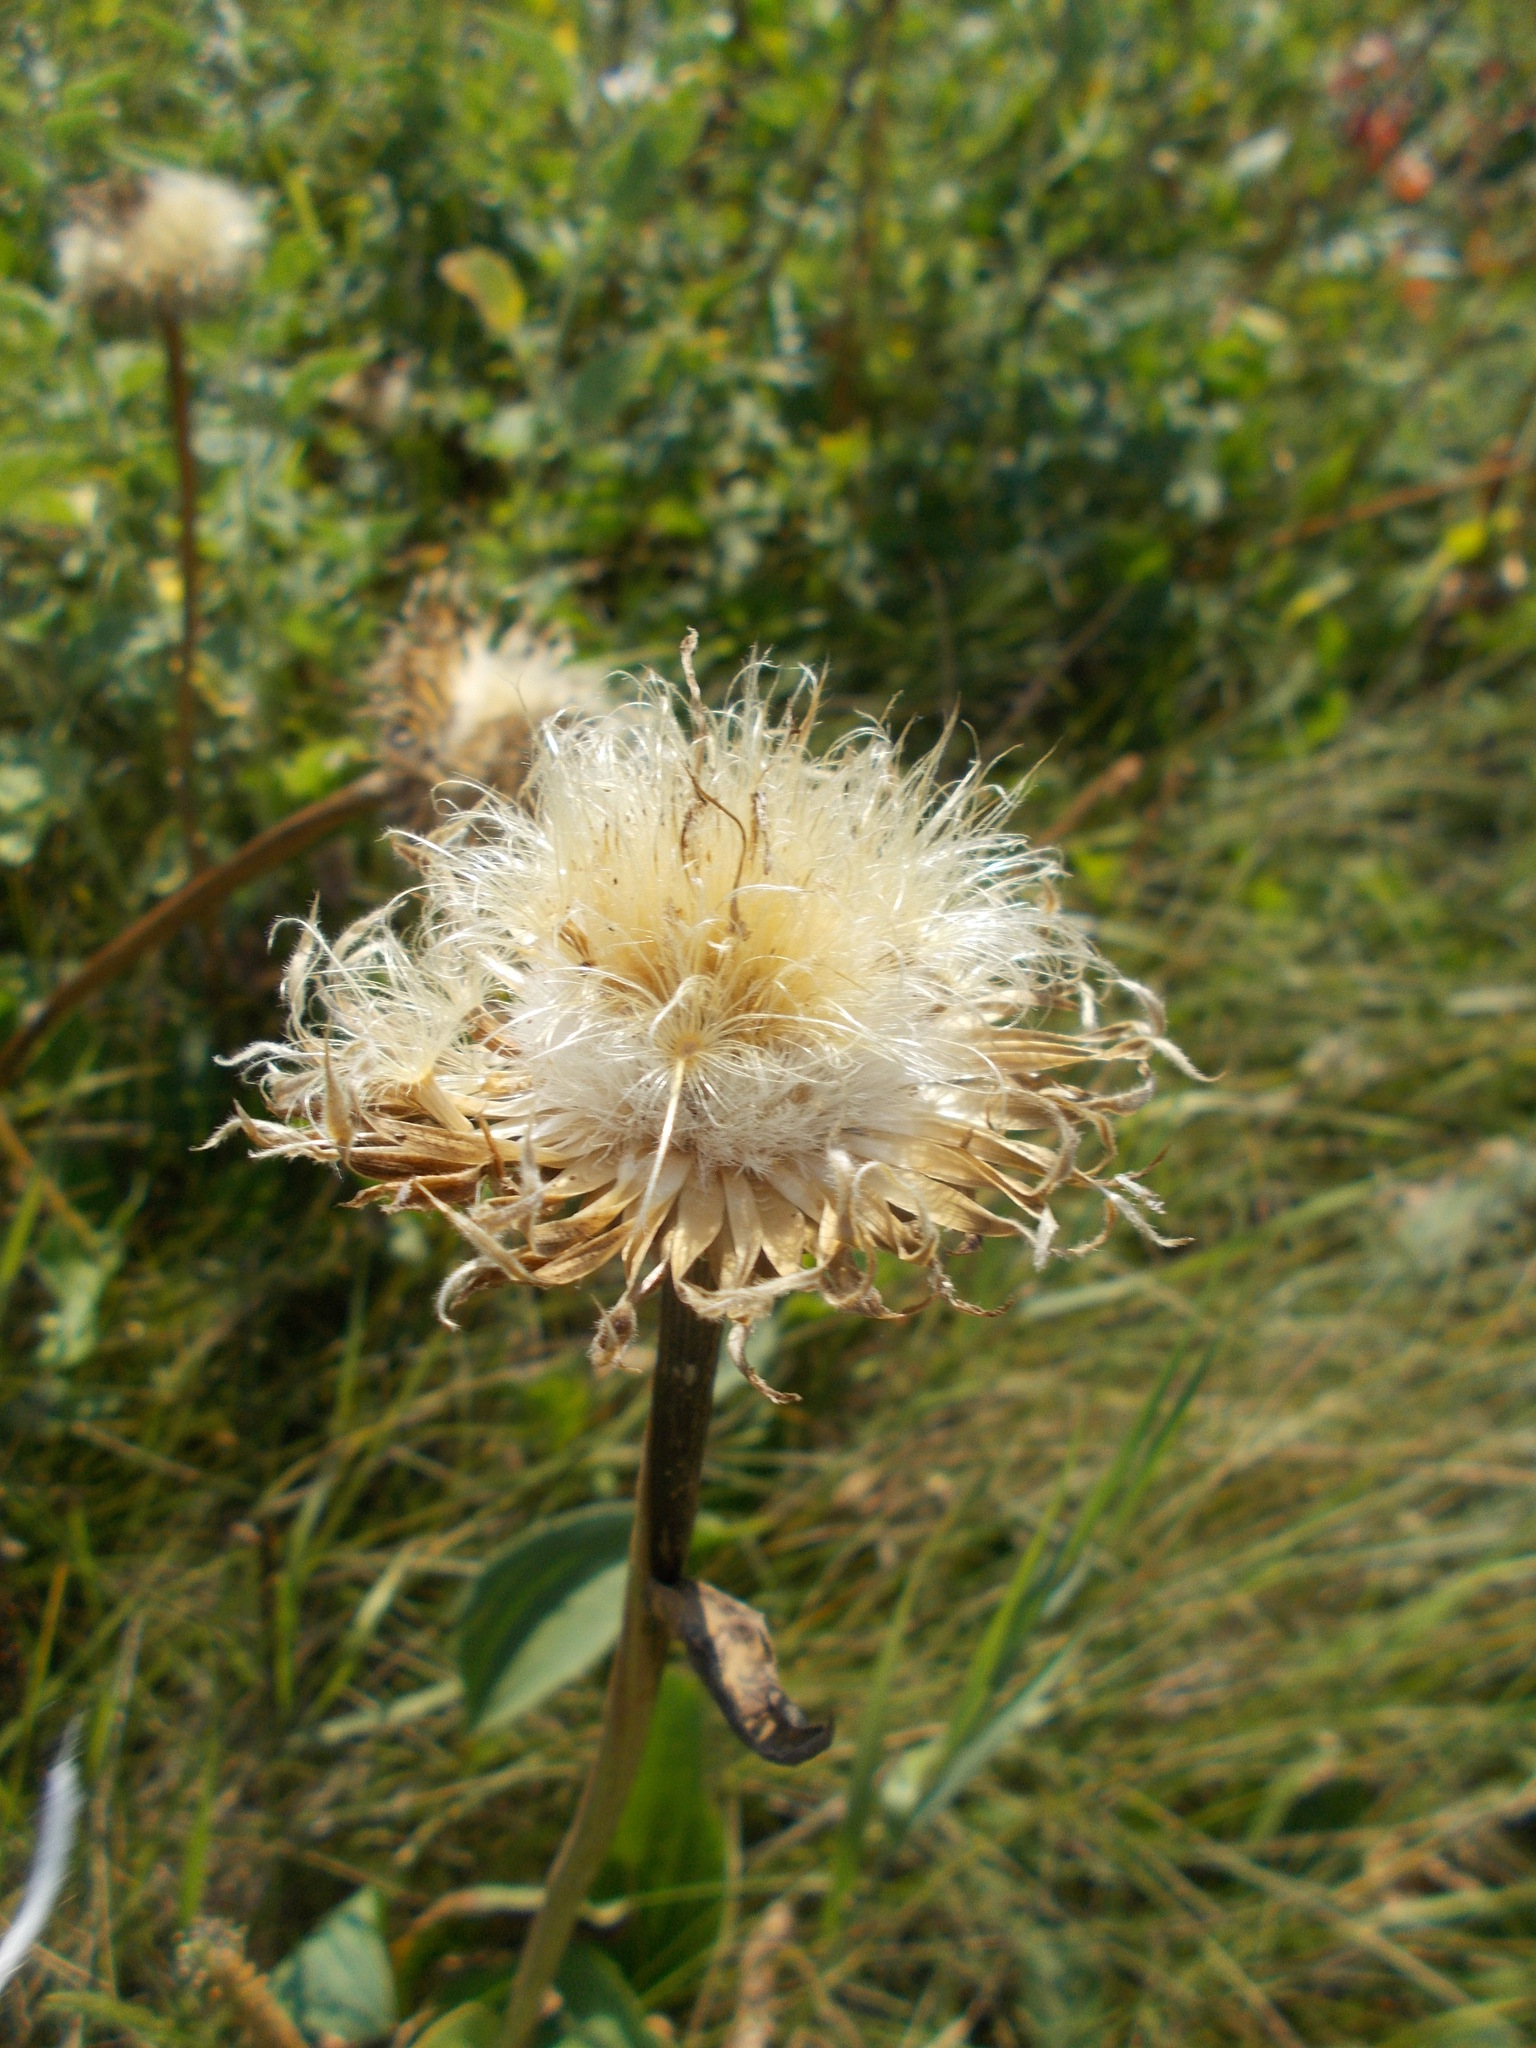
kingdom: Plantae
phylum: Tracheophyta
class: Magnoliopsida
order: Asterales
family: Asteraceae
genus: Leuzea
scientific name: Leuzea carthamoides
